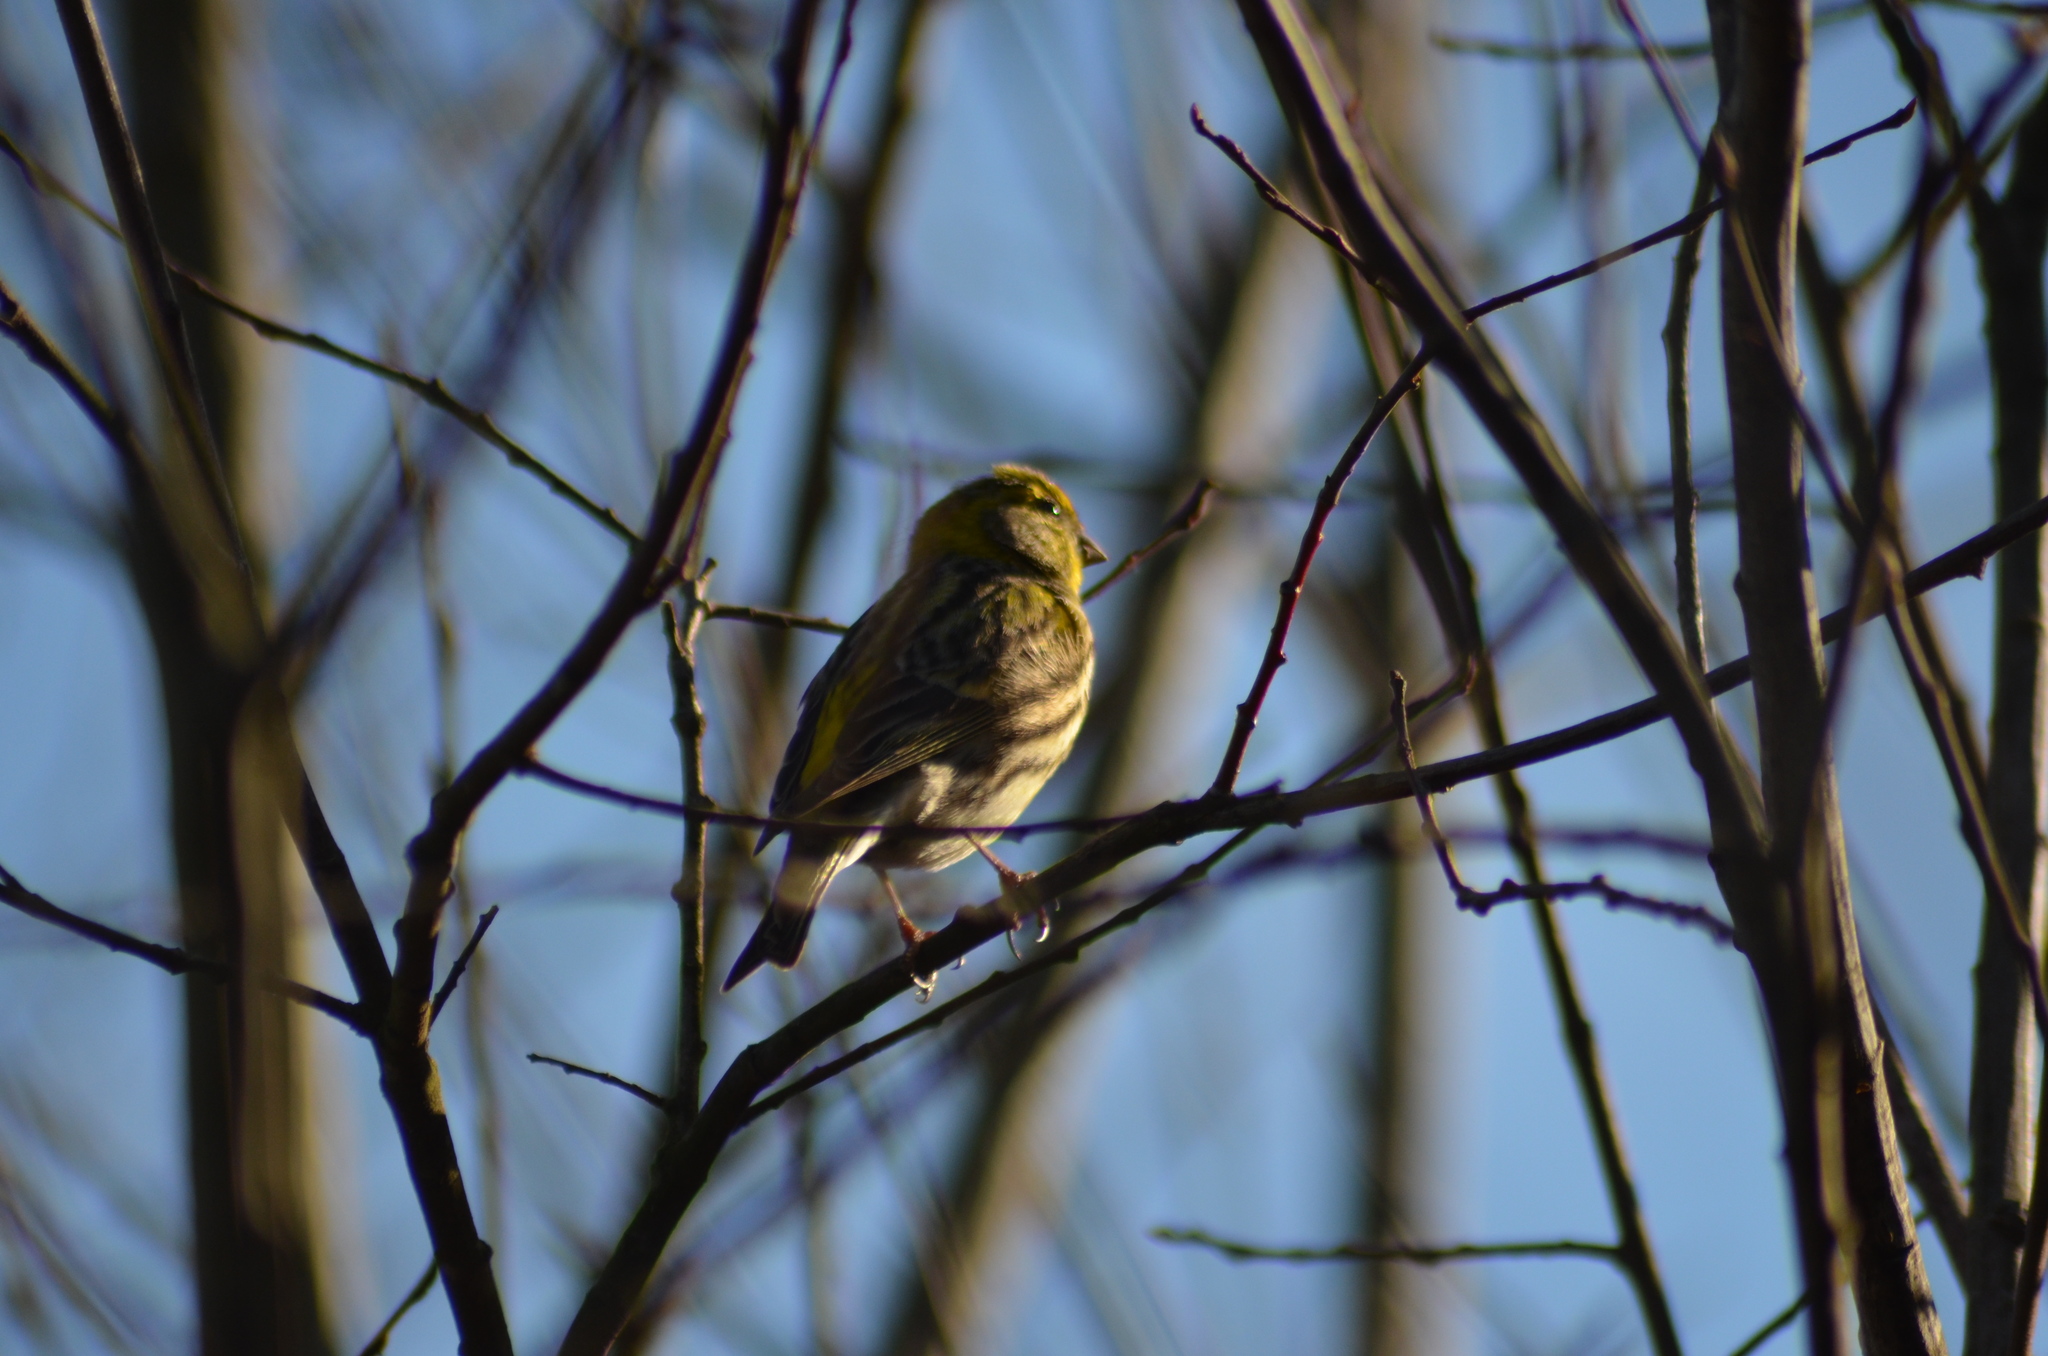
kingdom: Animalia
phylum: Chordata
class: Aves
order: Passeriformes
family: Fringillidae
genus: Serinus
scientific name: Serinus serinus
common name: European serin
